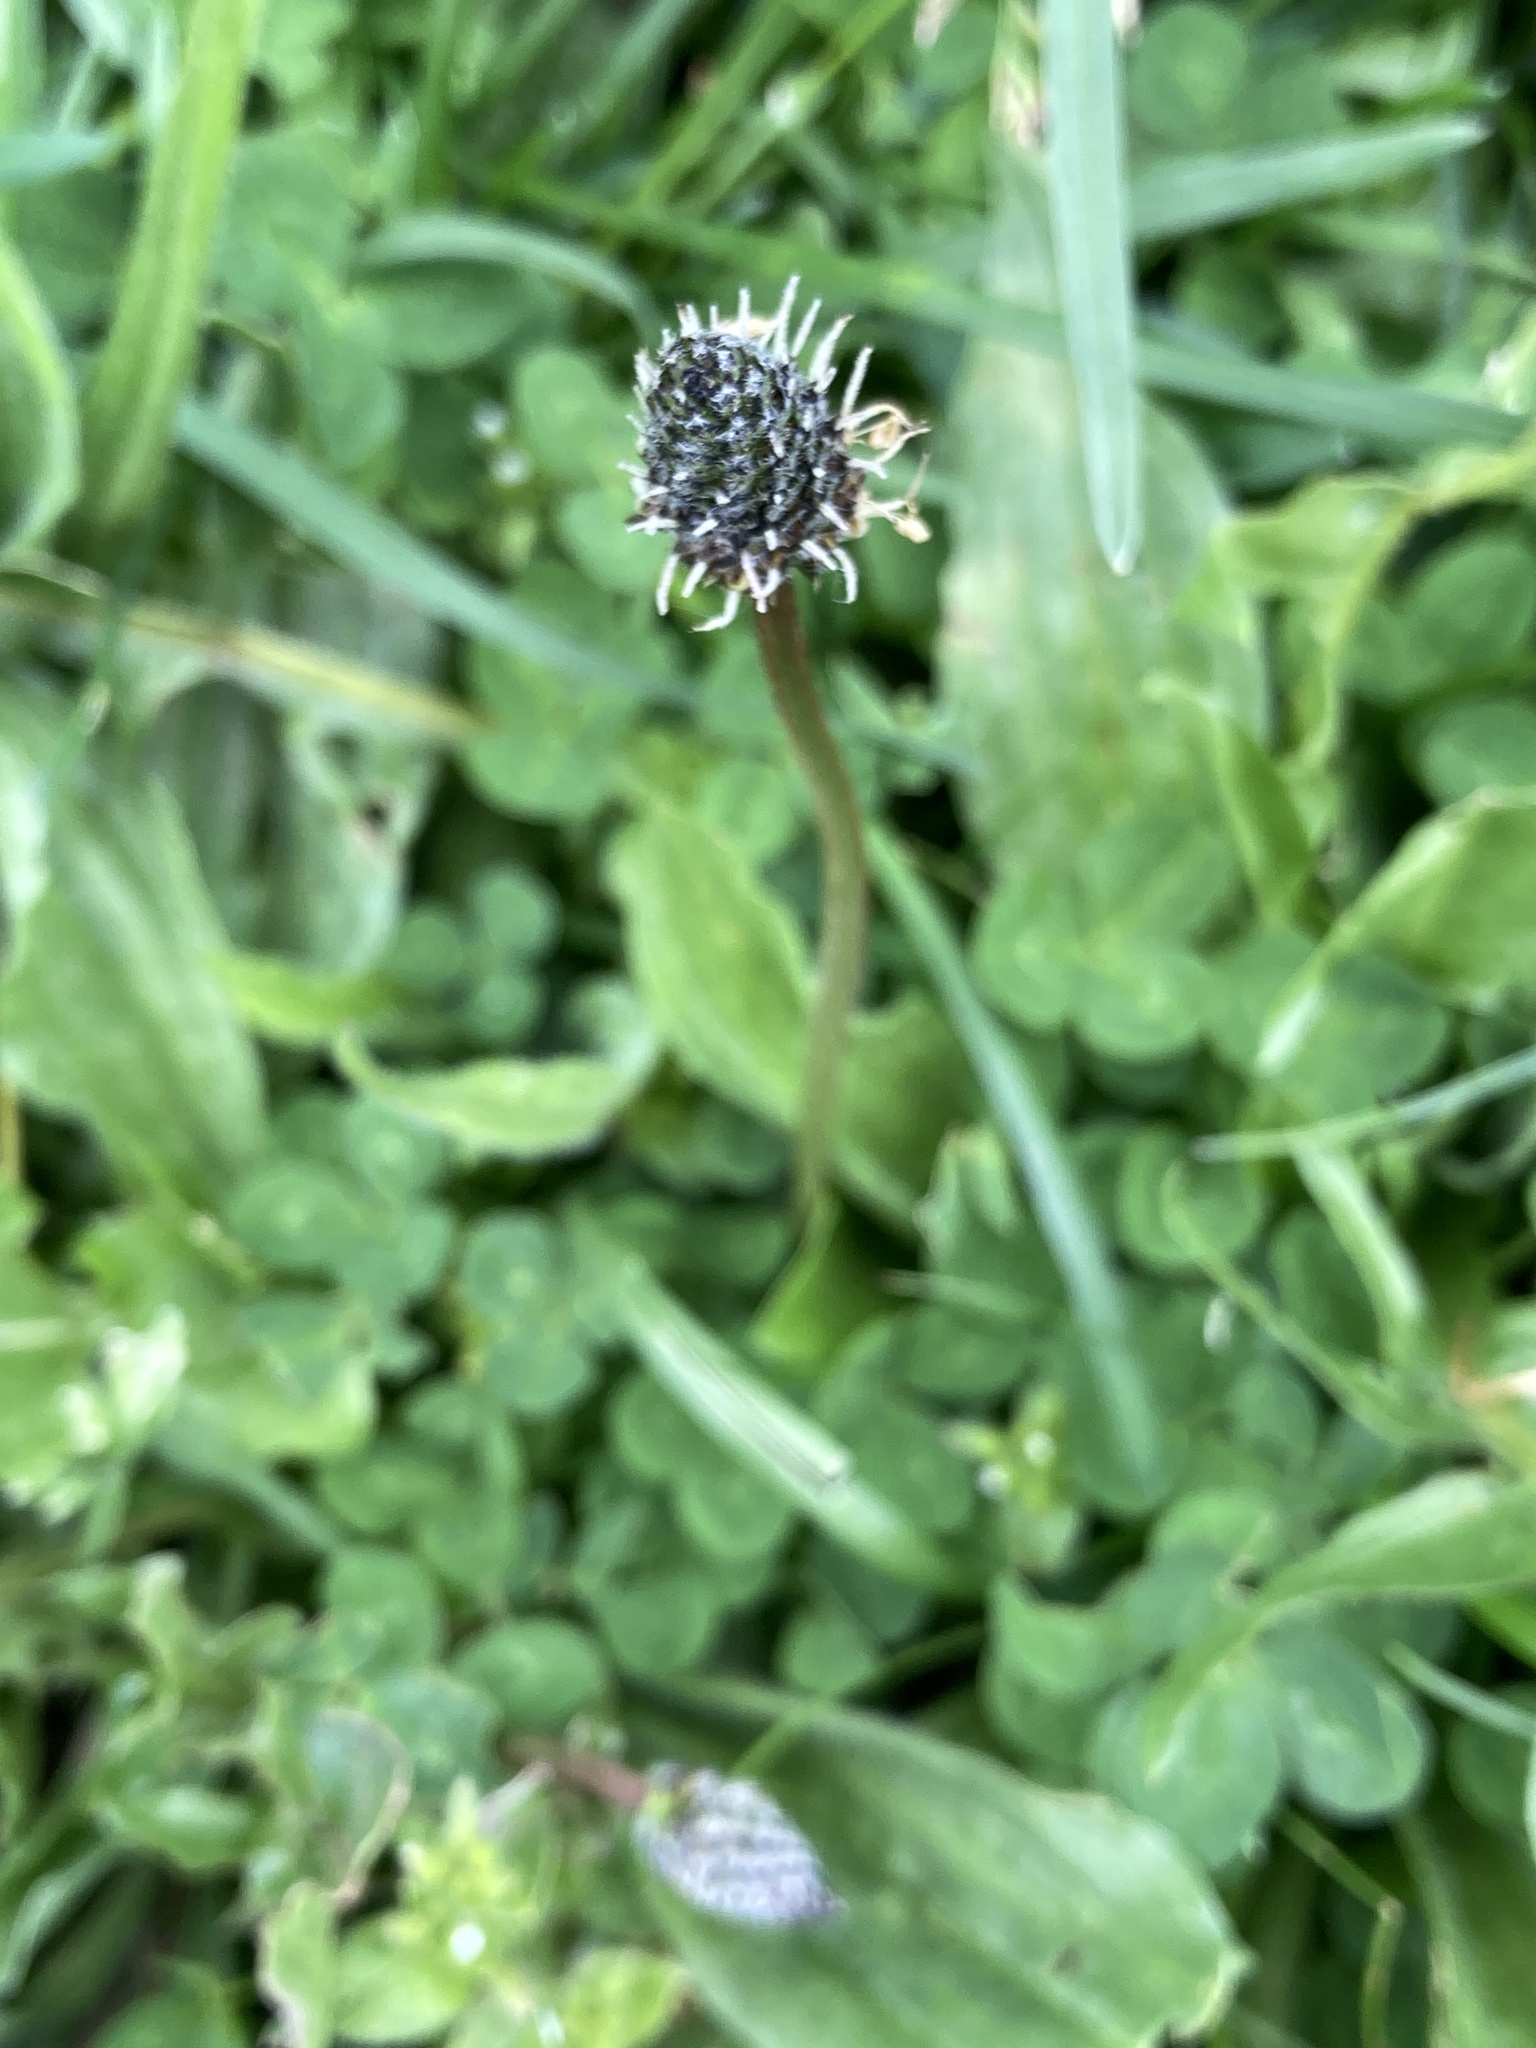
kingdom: Plantae
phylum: Tracheophyta
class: Magnoliopsida
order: Lamiales
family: Plantaginaceae
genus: Plantago
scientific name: Plantago lanceolata
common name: Ribwort plantain
